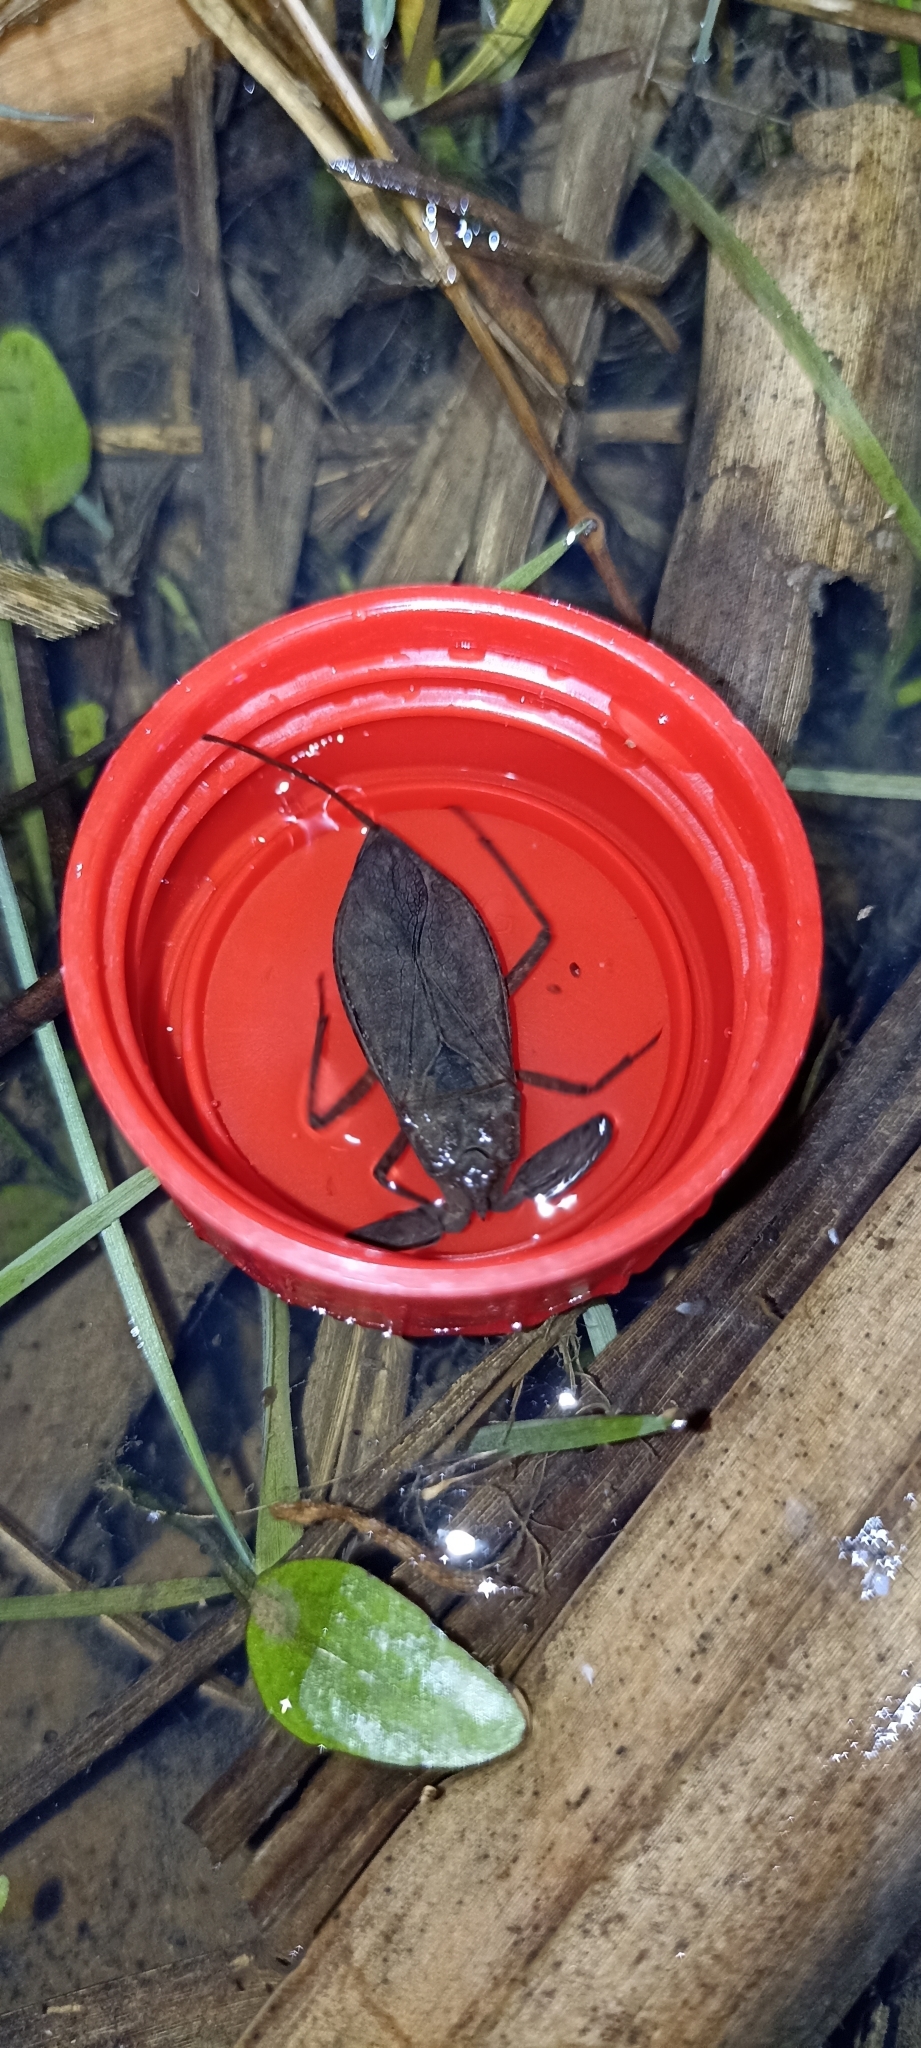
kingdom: Animalia
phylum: Arthropoda
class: Insecta
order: Hemiptera
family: Nepidae
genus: Nepa
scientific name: Nepa cinerea
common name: Water scorpion
